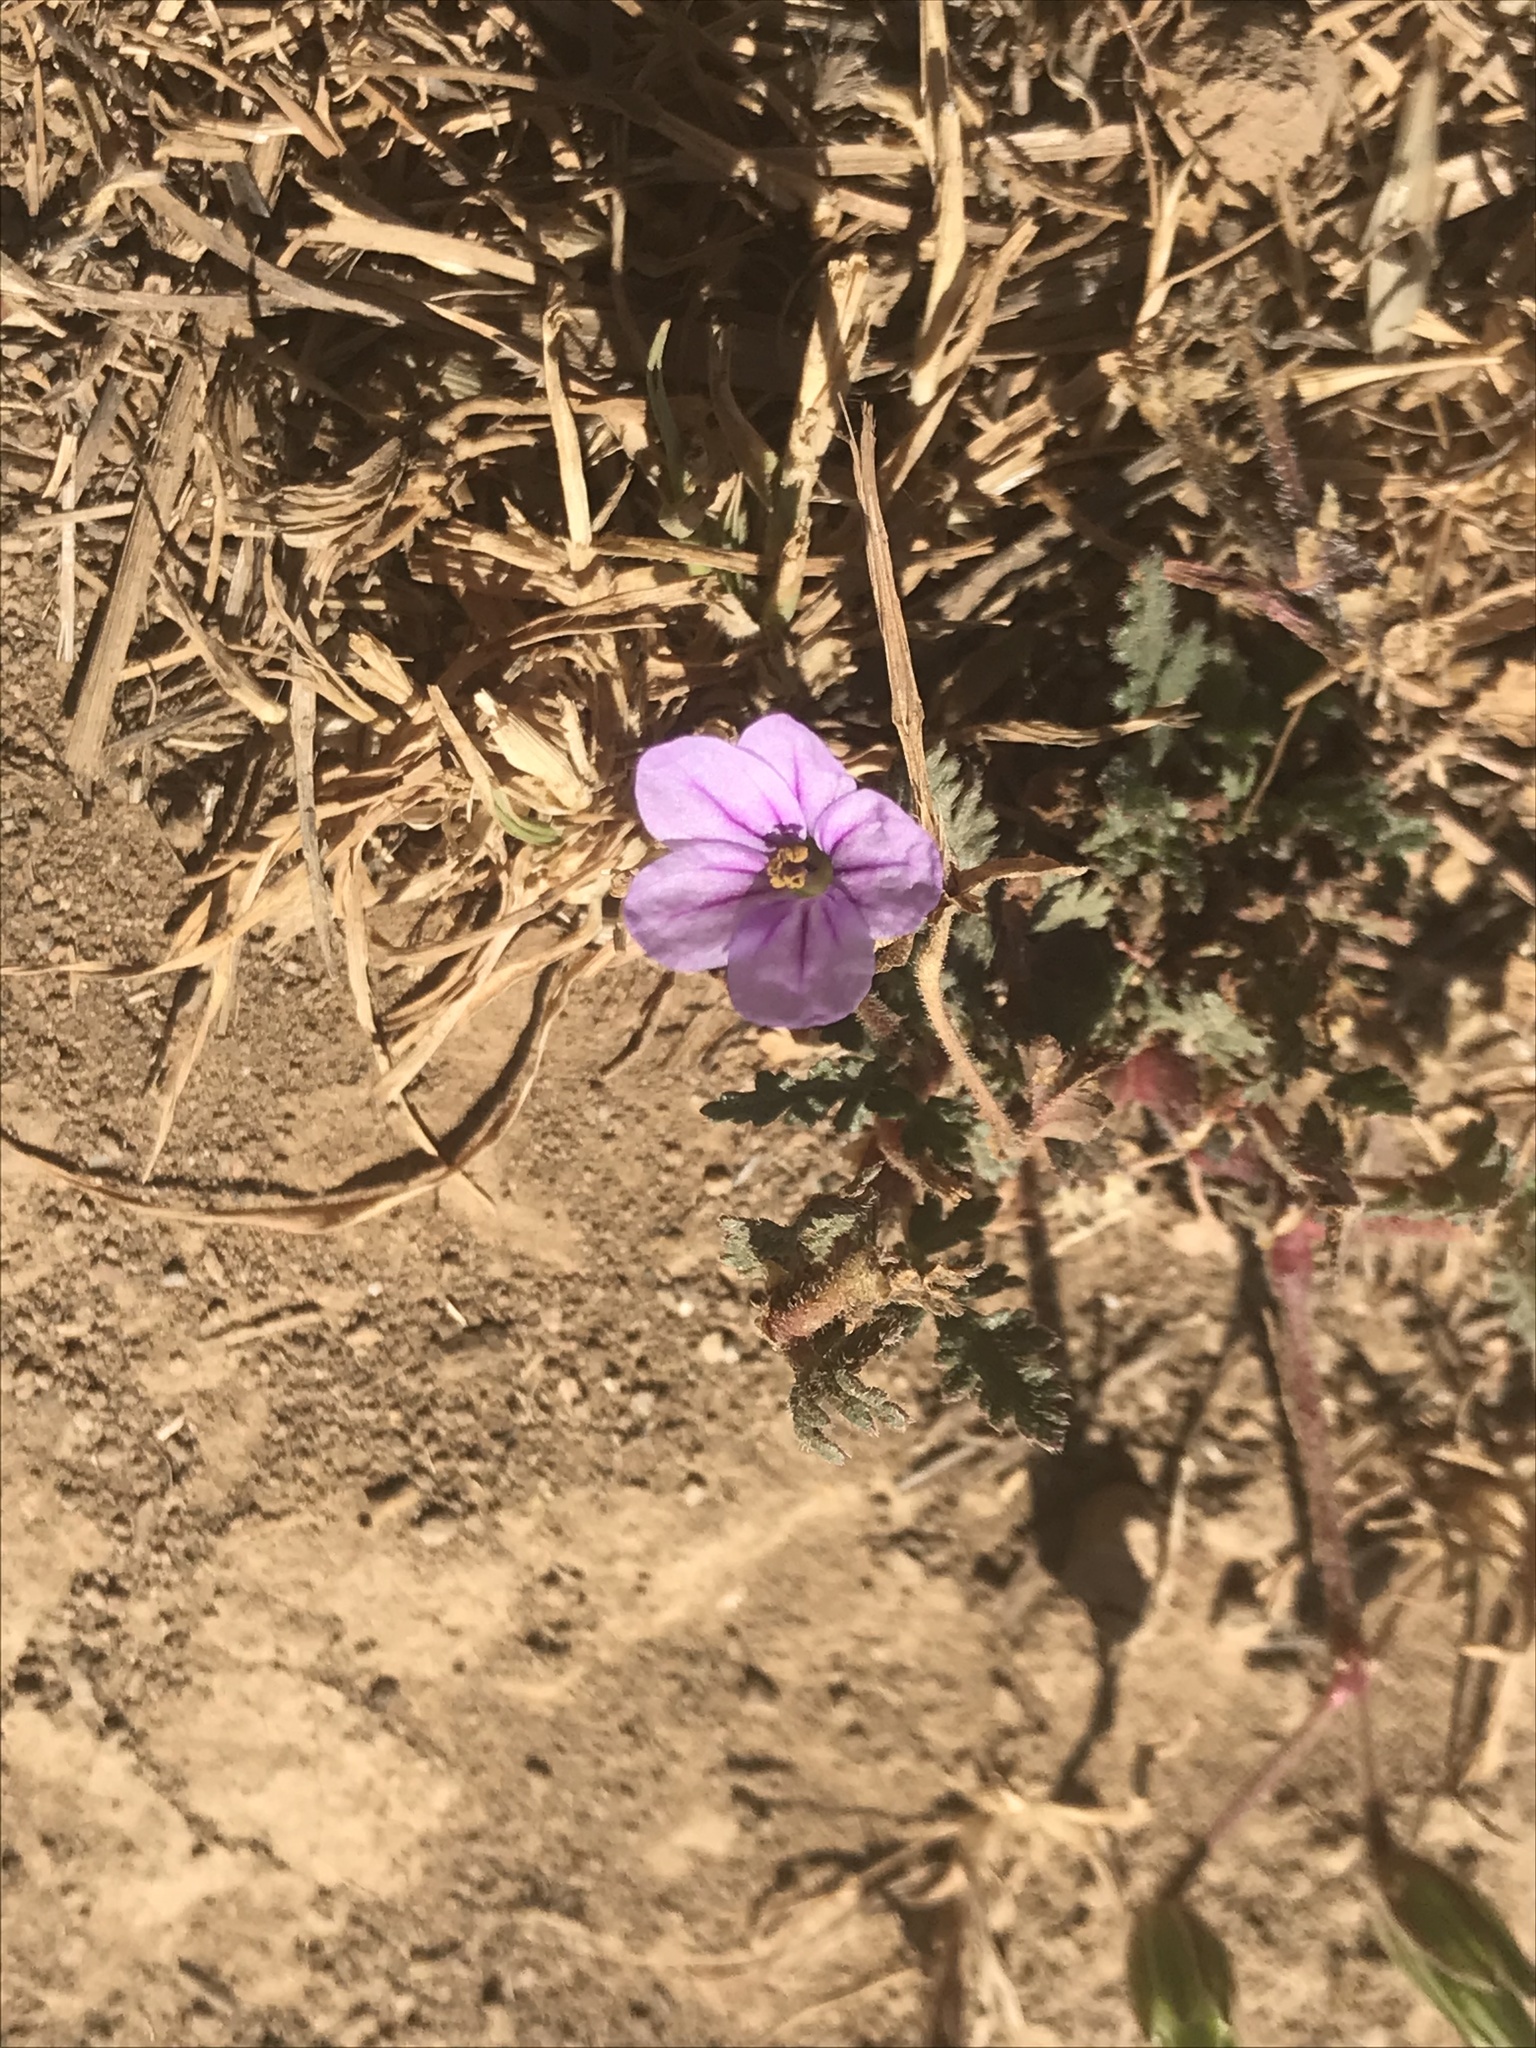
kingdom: Plantae
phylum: Tracheophyta
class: Magnoliopsida
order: Geraniales
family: Geraniaceae
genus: Erodium
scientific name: Erodium botrys
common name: Mediterranean stork's-bill
